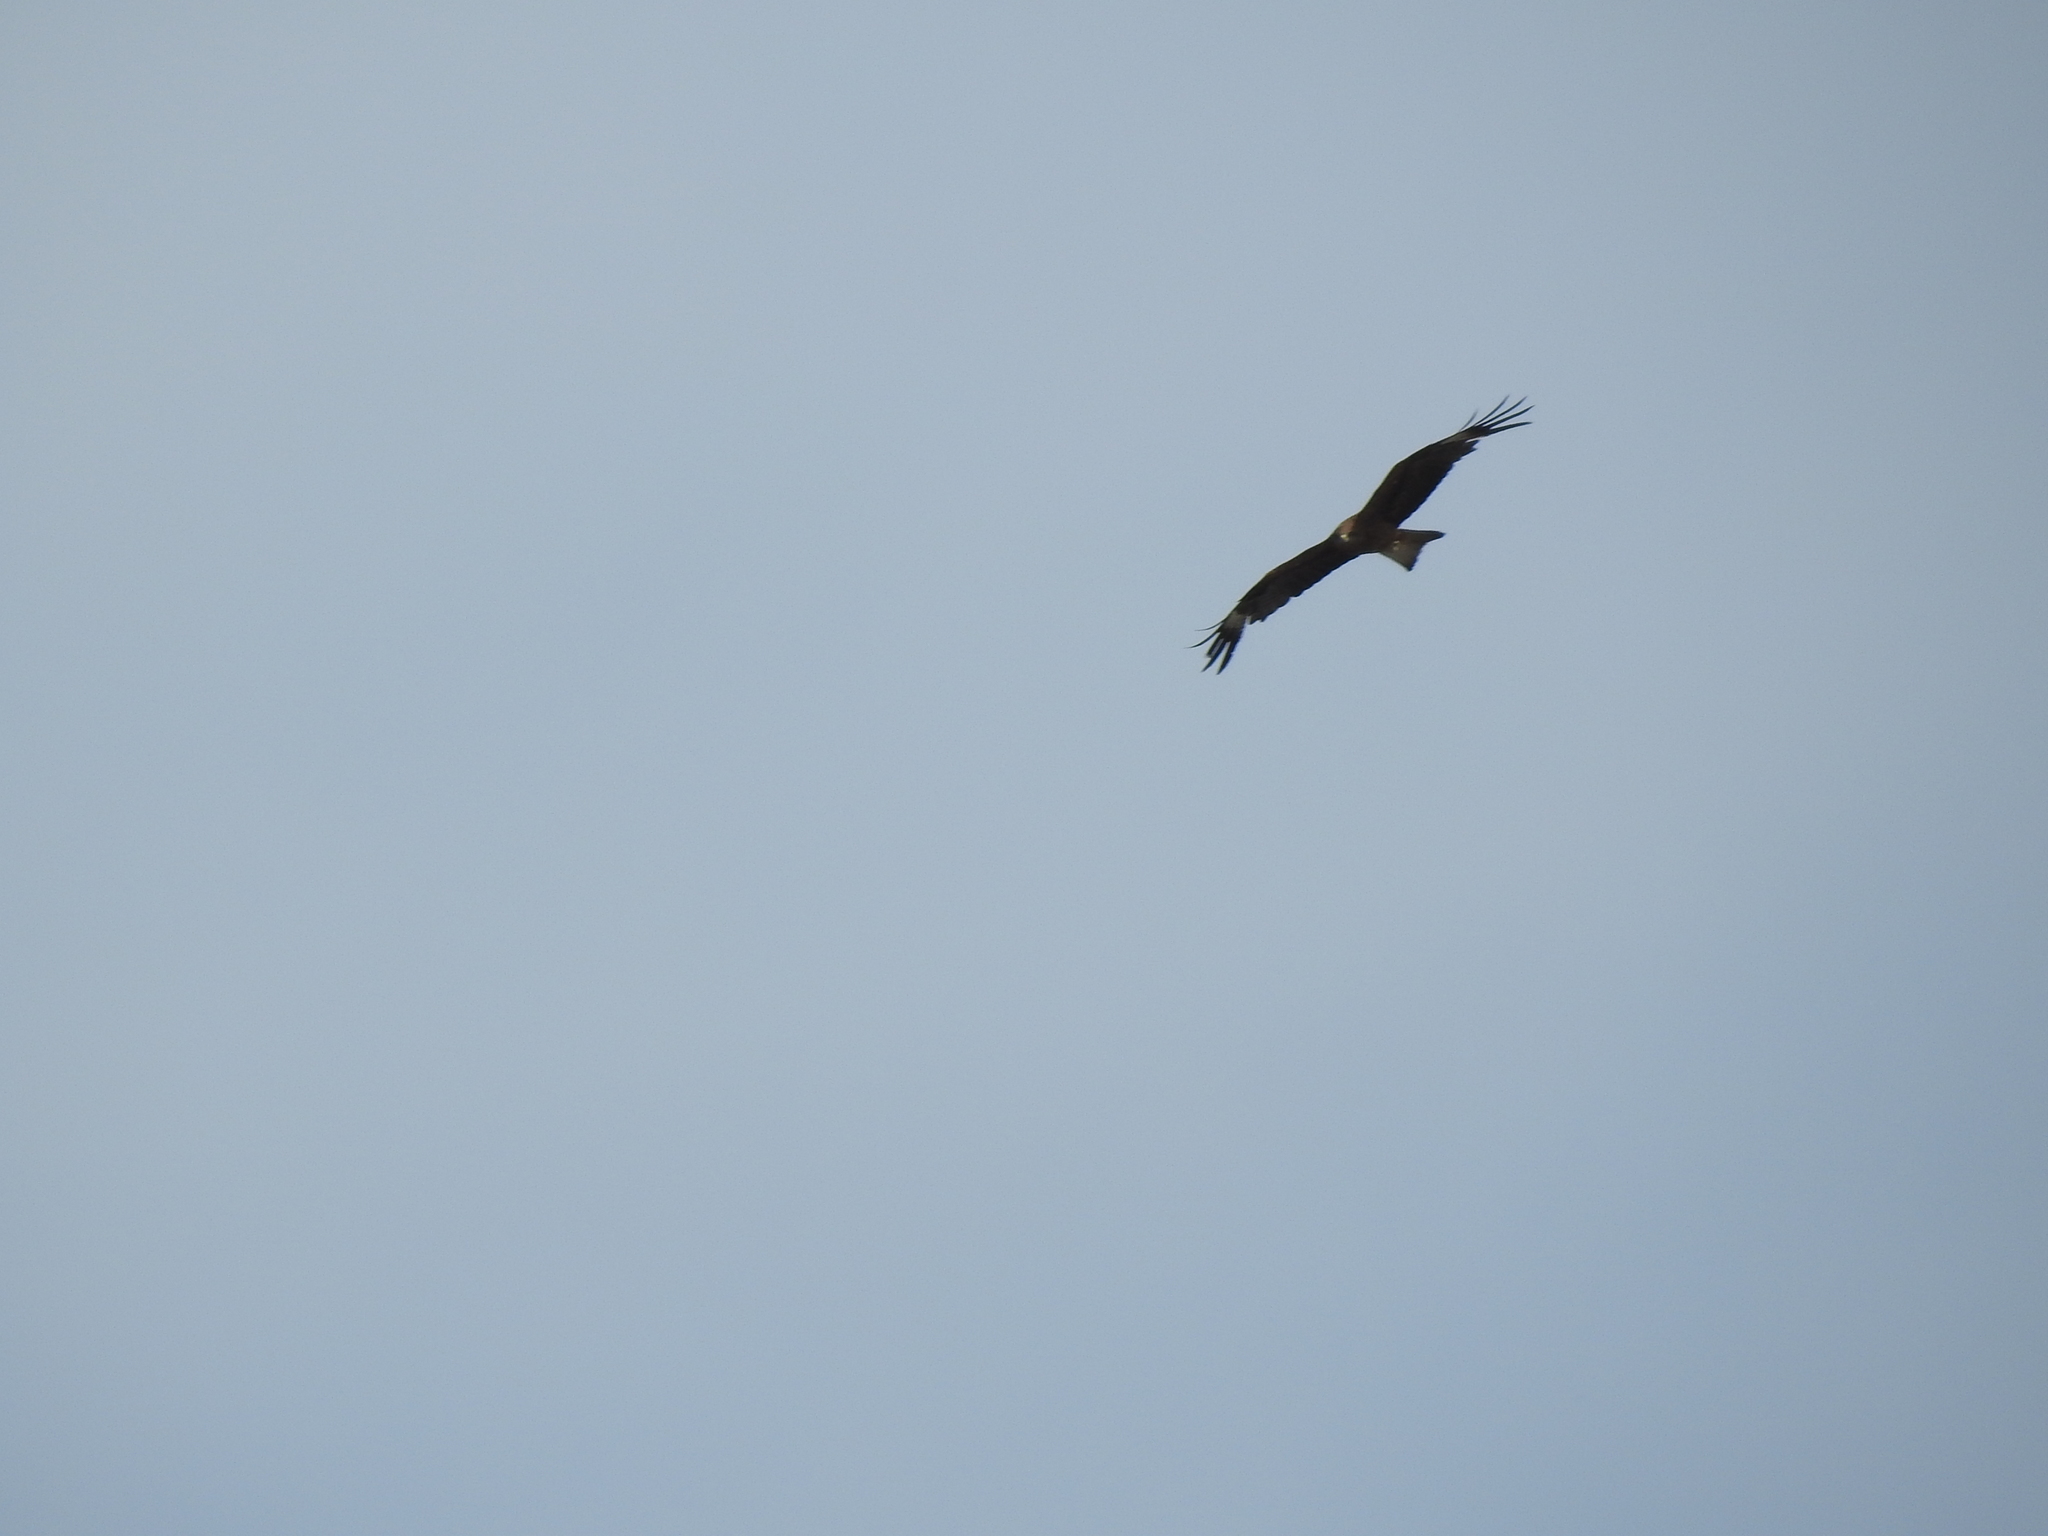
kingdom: Animalia
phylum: Chordata
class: Aves
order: Accipitriformes
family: Accipitridae
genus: Milvus
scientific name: Milvus migrans
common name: Black kite
